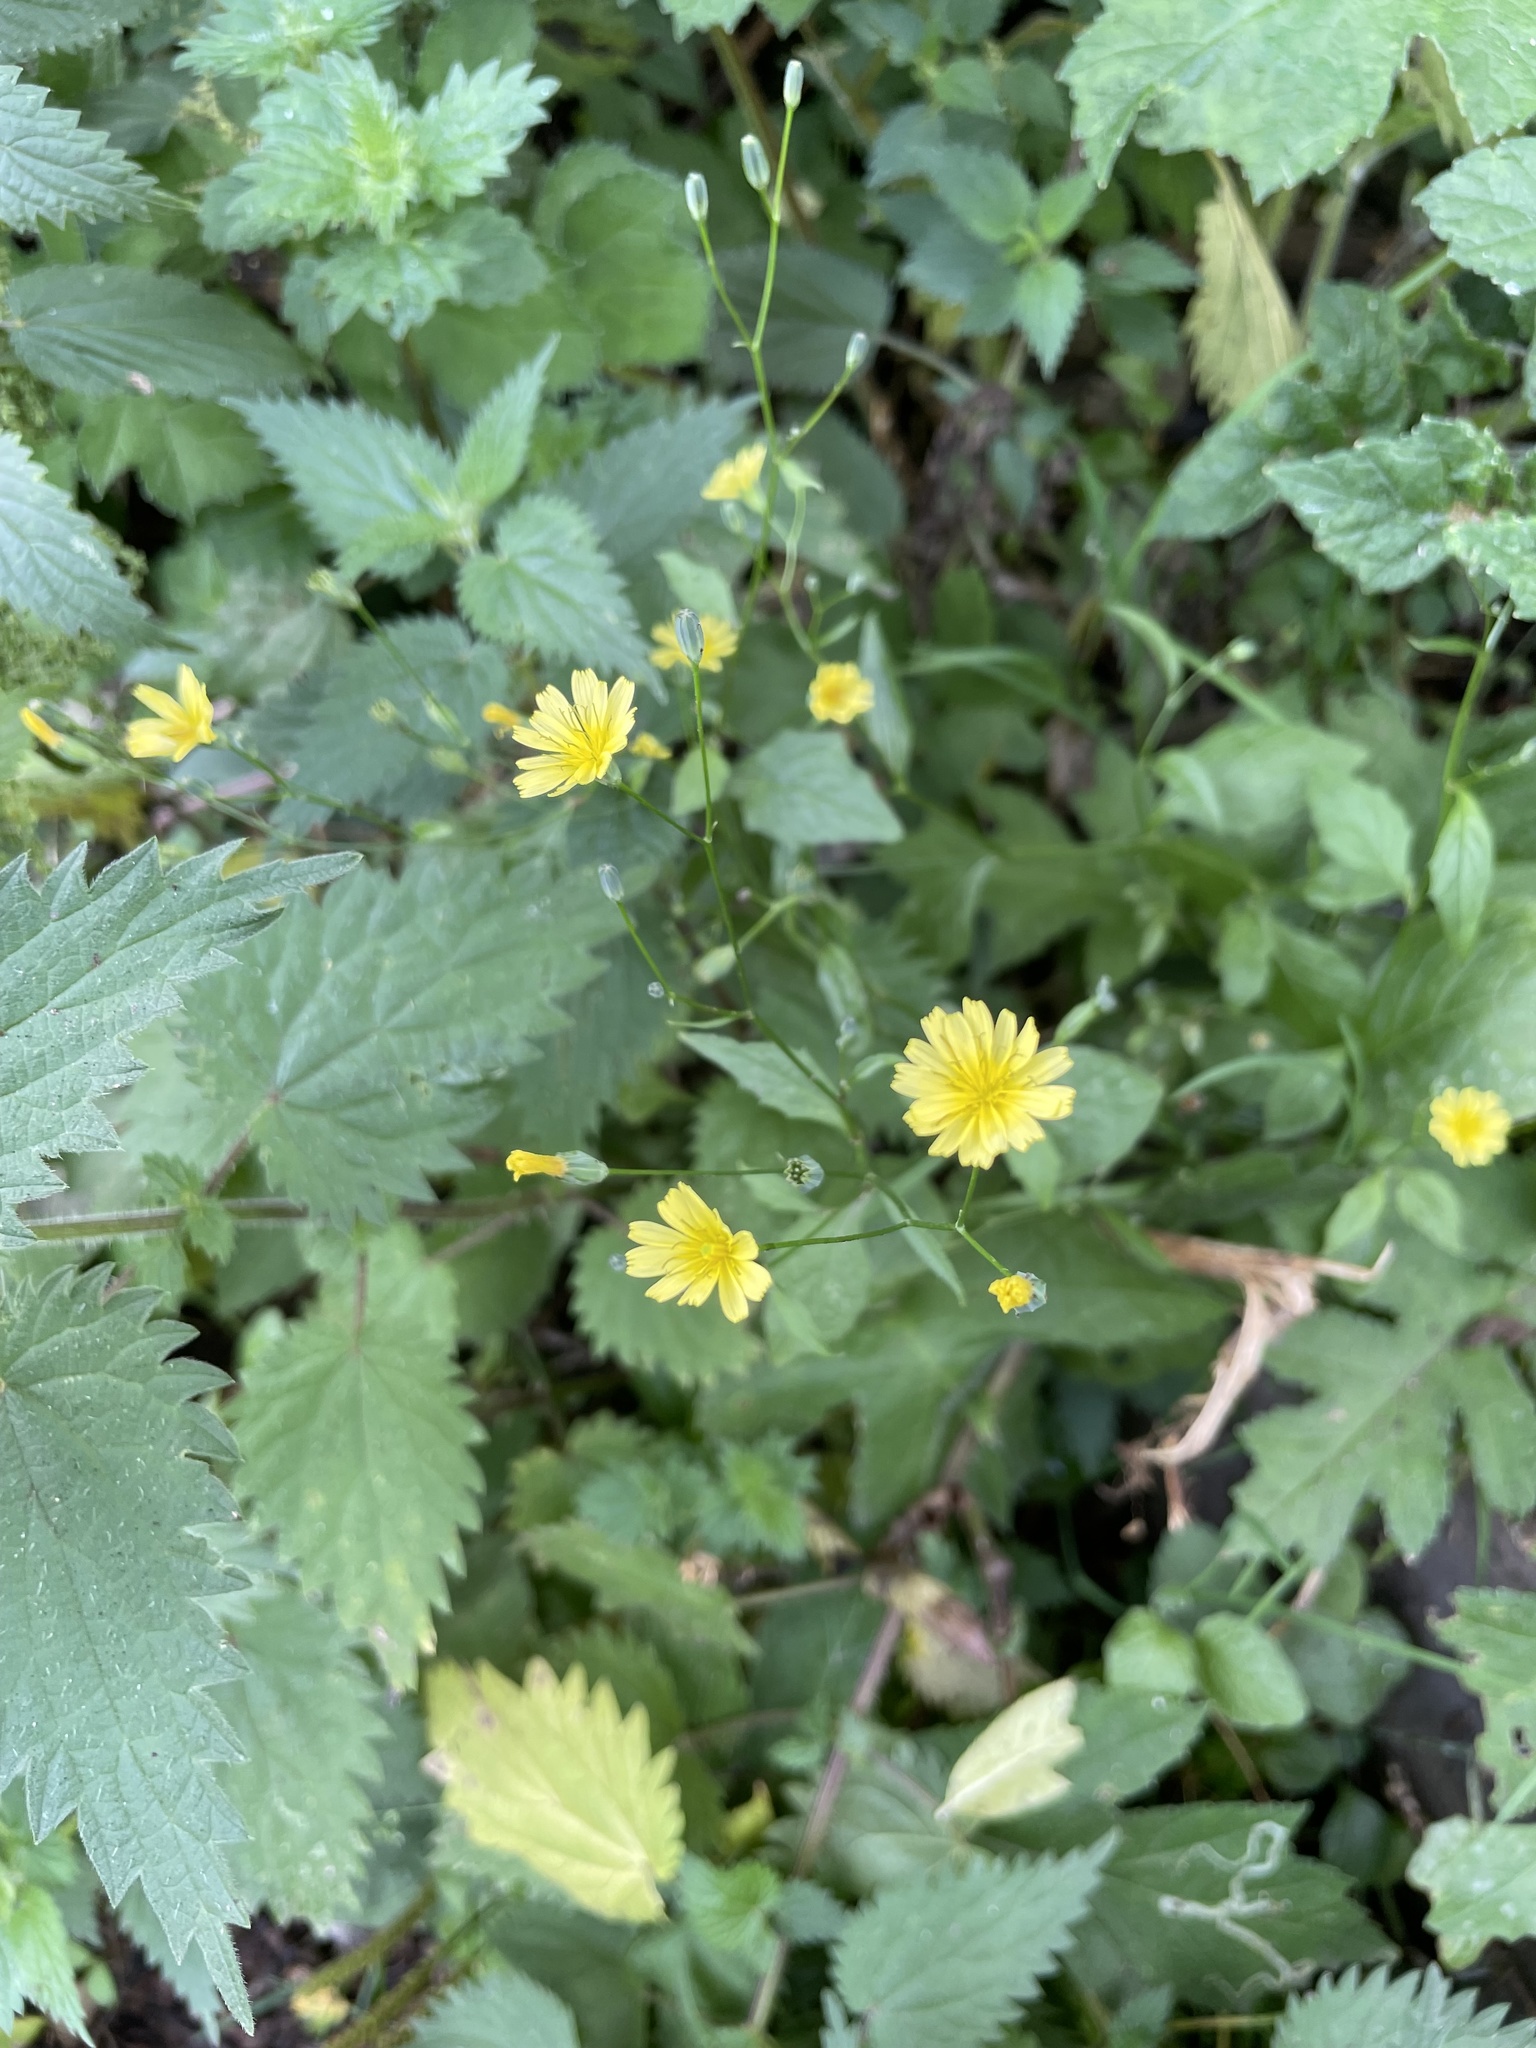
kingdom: Plantae
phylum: Tracheophyta
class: Magnoliopsida
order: Asterales
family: Asteraceae
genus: Lapsana
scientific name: Lapsana communis
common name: Nipplewort
